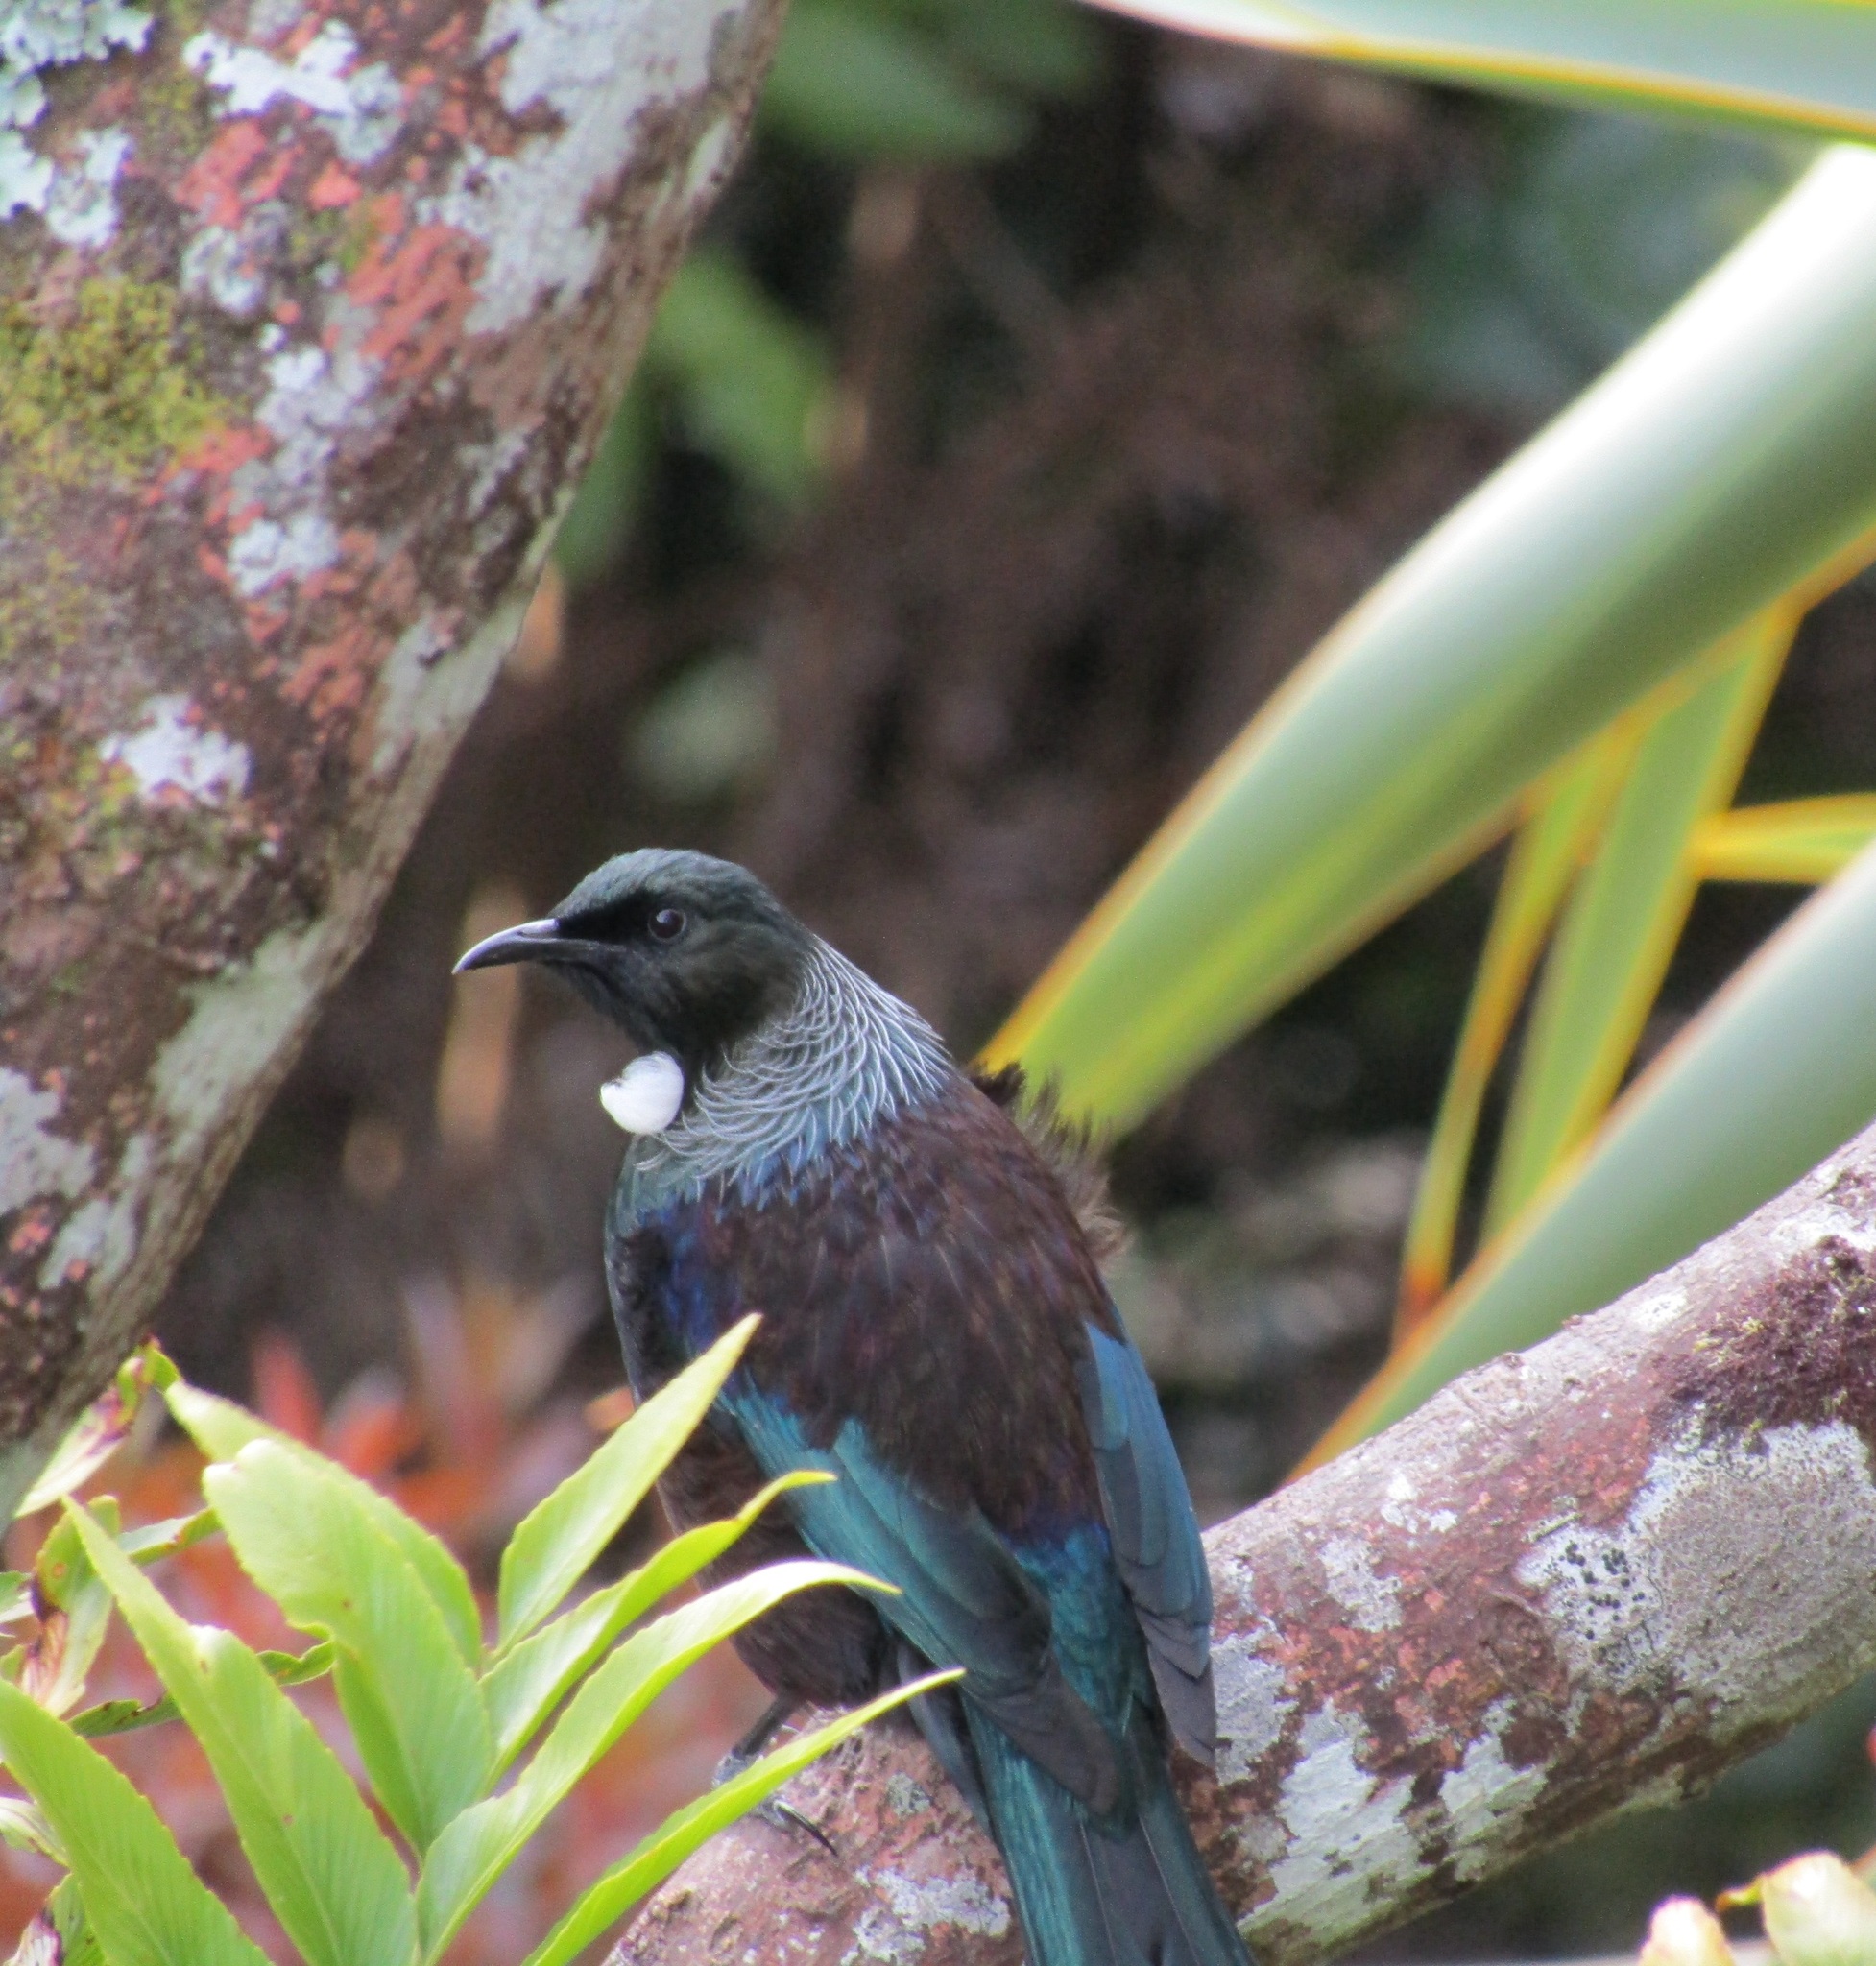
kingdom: Animalia
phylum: Chordata
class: Aves
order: Passeriformes
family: Meliphagidae
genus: Prosthemadera
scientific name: Prosthemadera novaeseelandiae
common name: Tui
